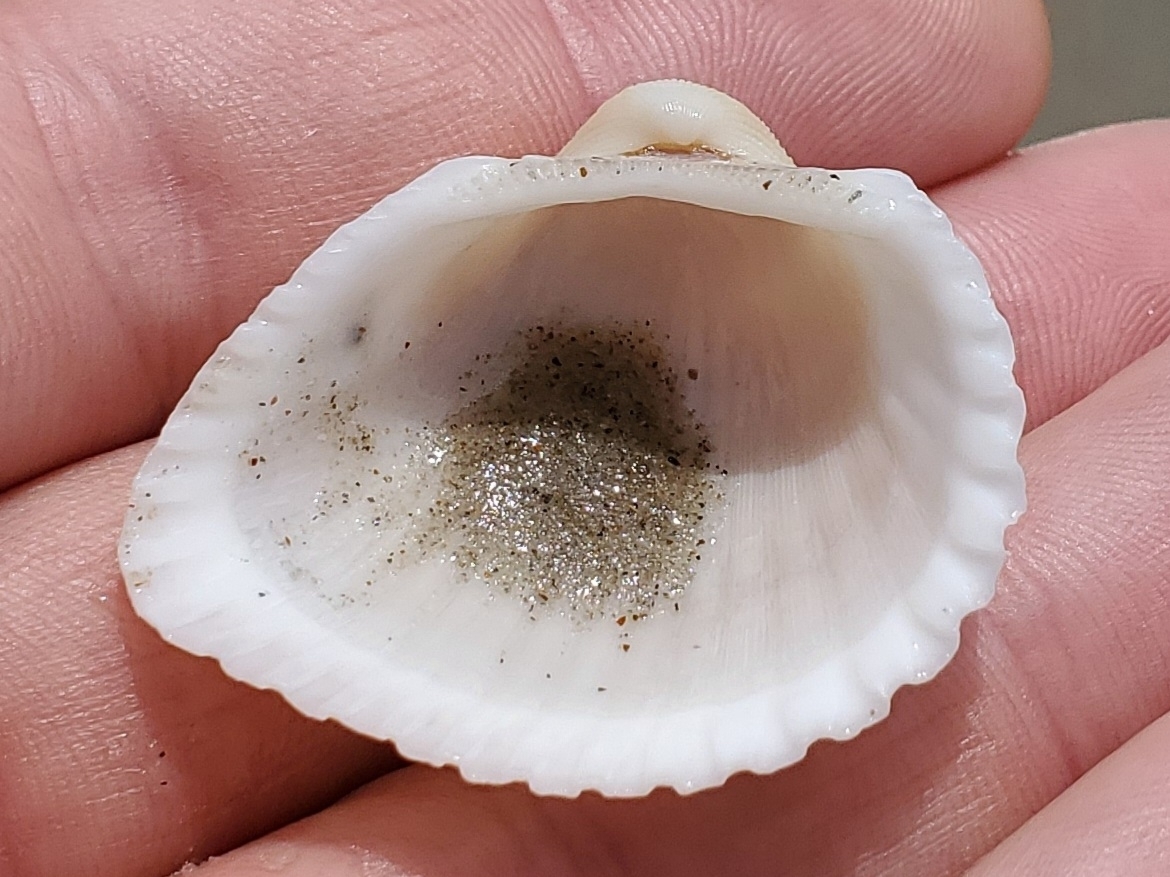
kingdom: Animalia
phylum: Mollusca
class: Bivalvia
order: Arcida
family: Arcidae
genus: Anadara
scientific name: Anadara brasiliana
